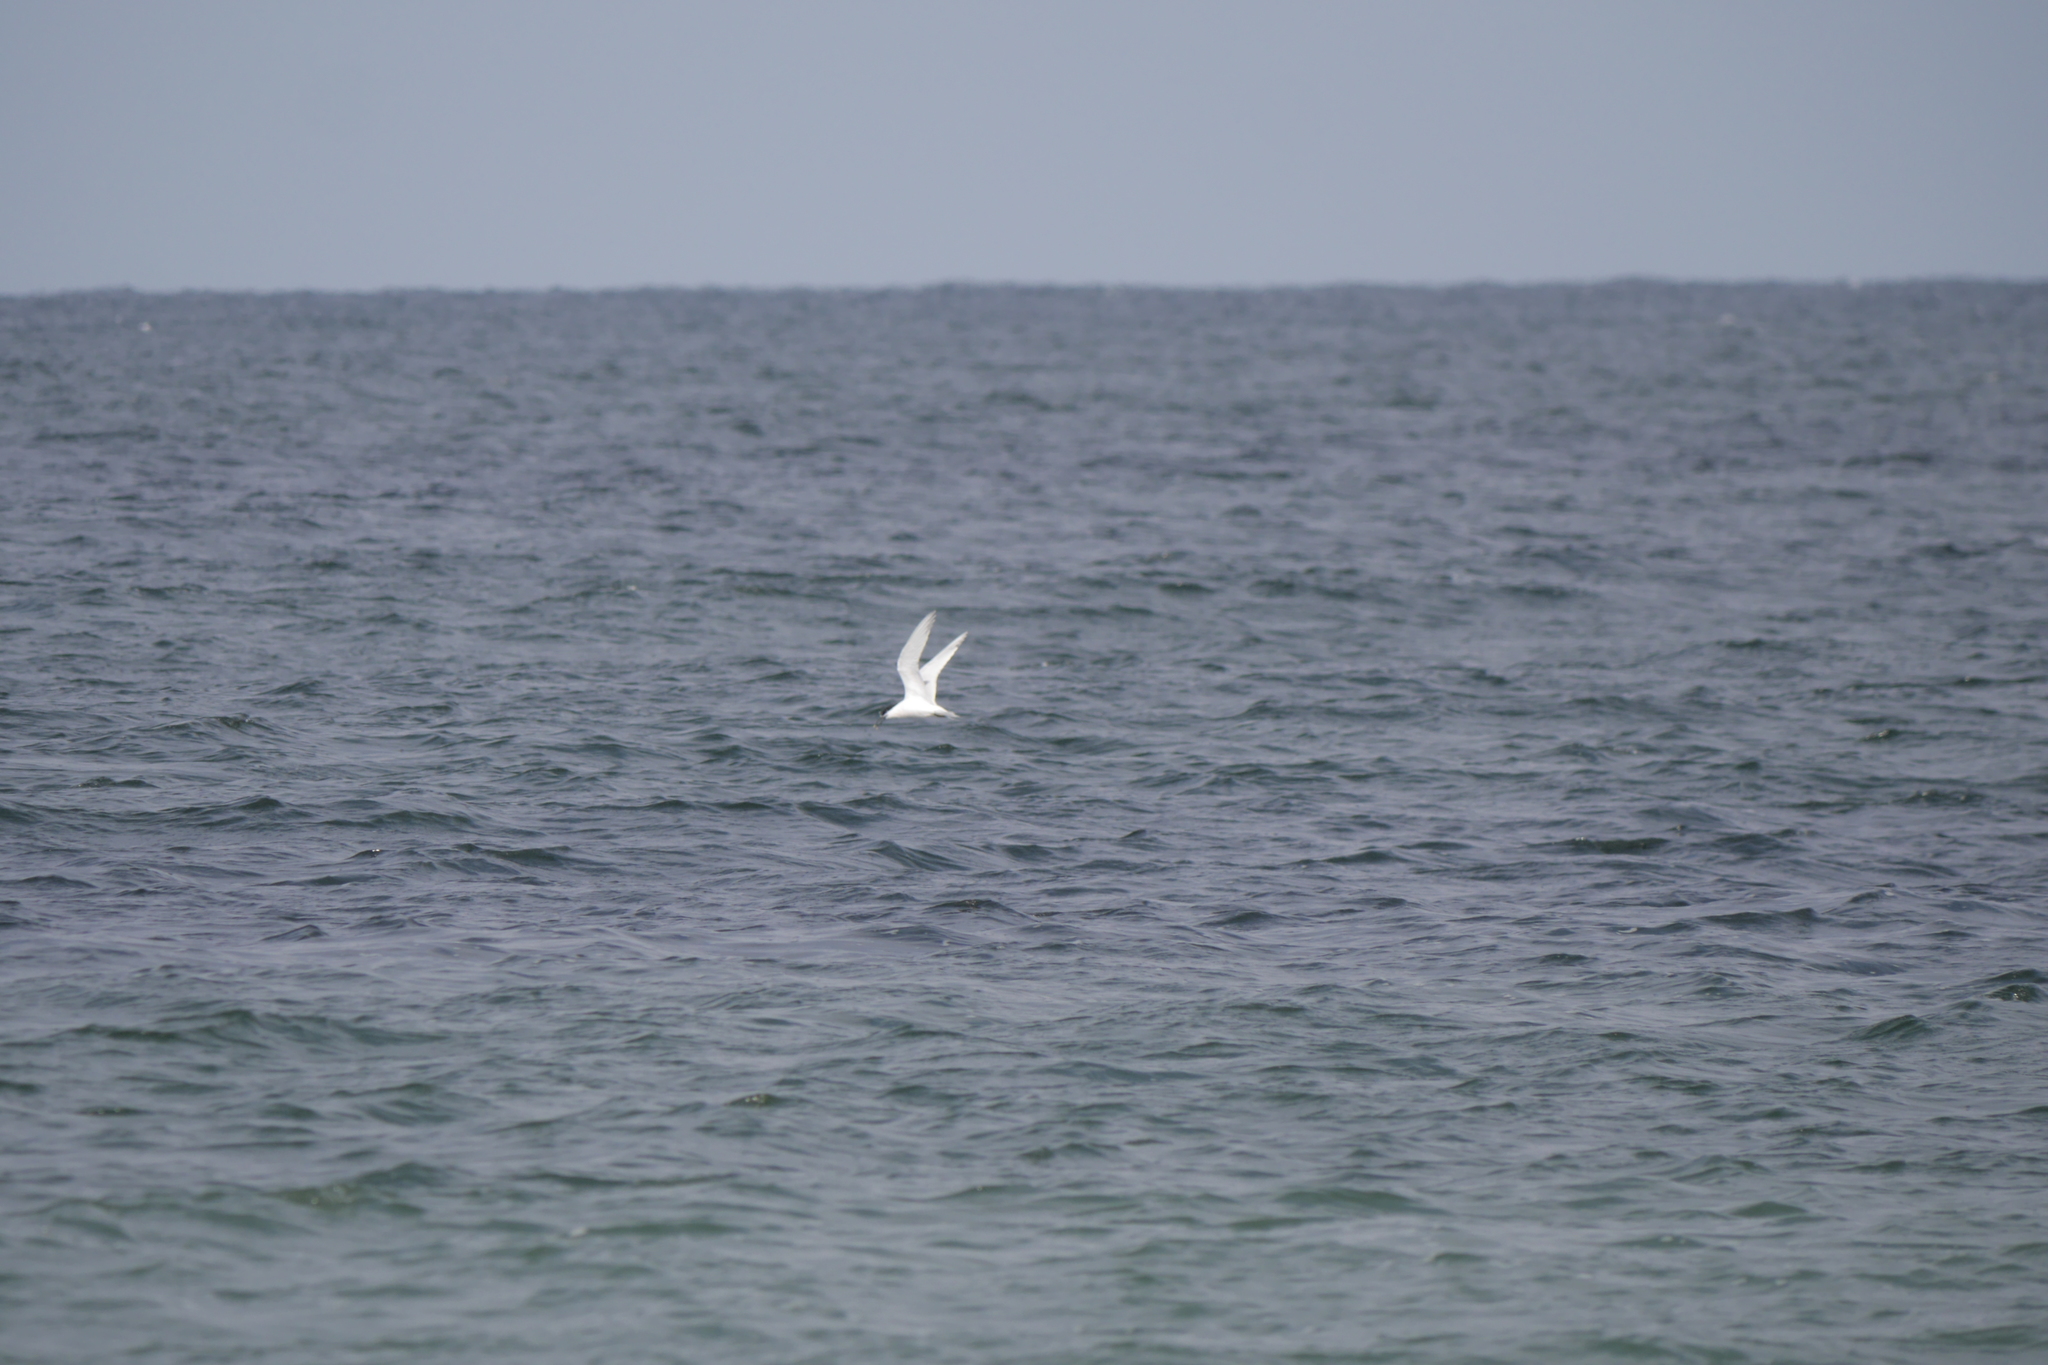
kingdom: Animalia
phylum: Chordata
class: Aves
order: Charadriiformes
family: Laridae
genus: Thalasseus
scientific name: Thalasseus sandvicensis
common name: Sandwich tern
